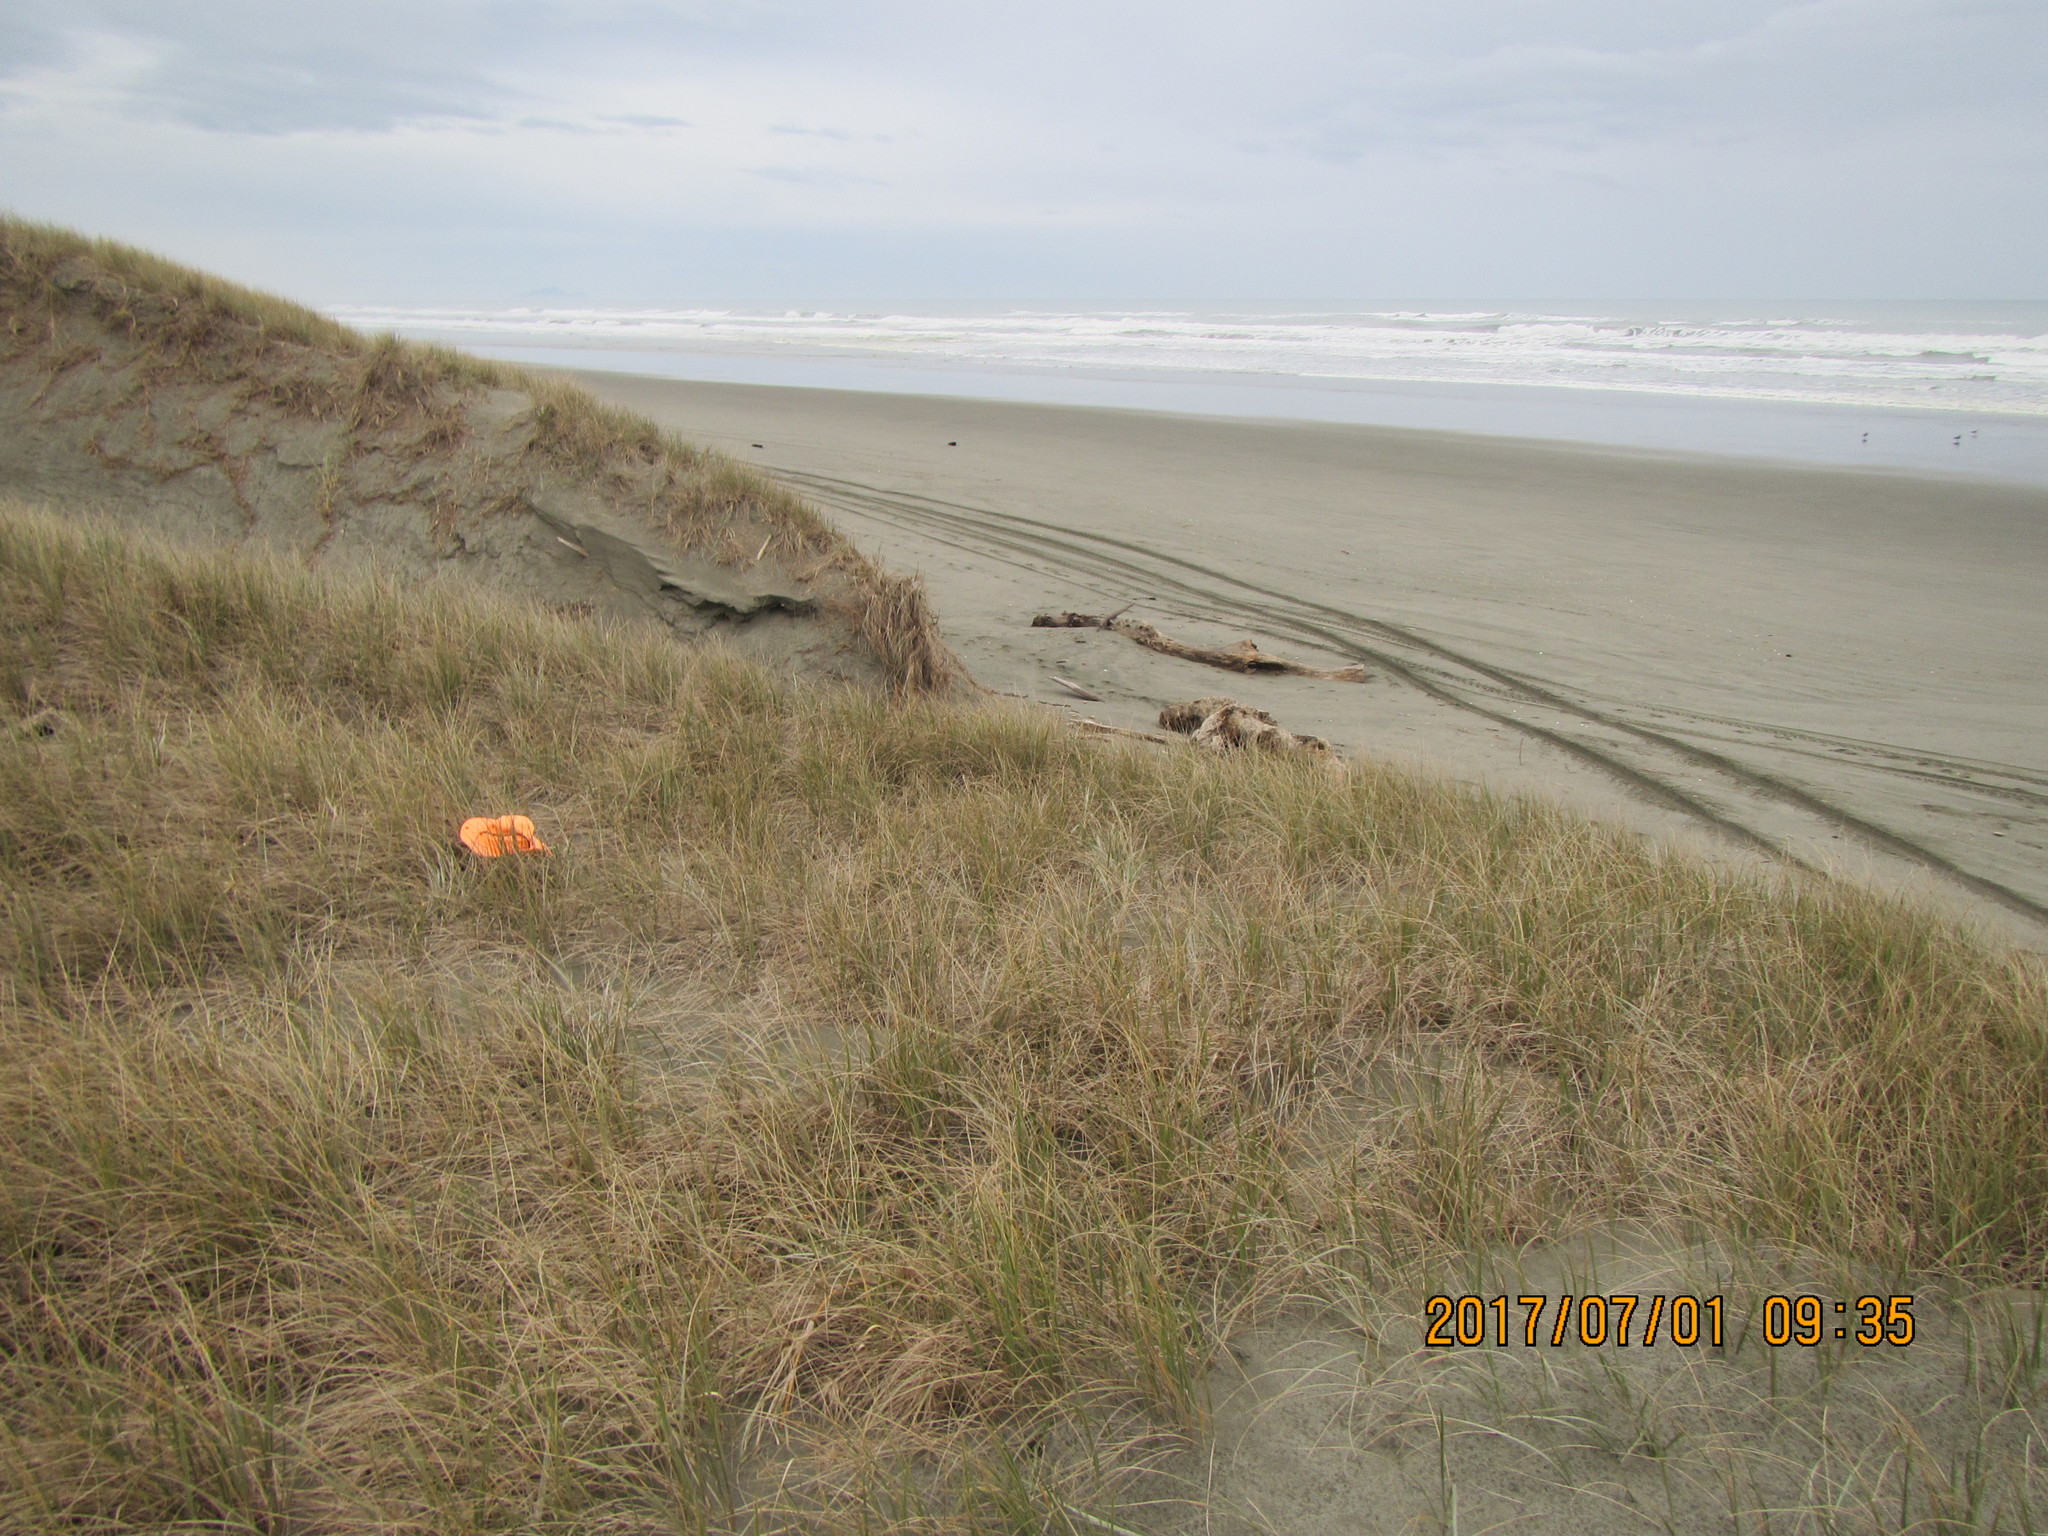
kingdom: Fungi
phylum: Ascomycota
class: Pezizomycetes
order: Pezizales
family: Pezizaceae
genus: Peziza
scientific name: Peziza oceanica
